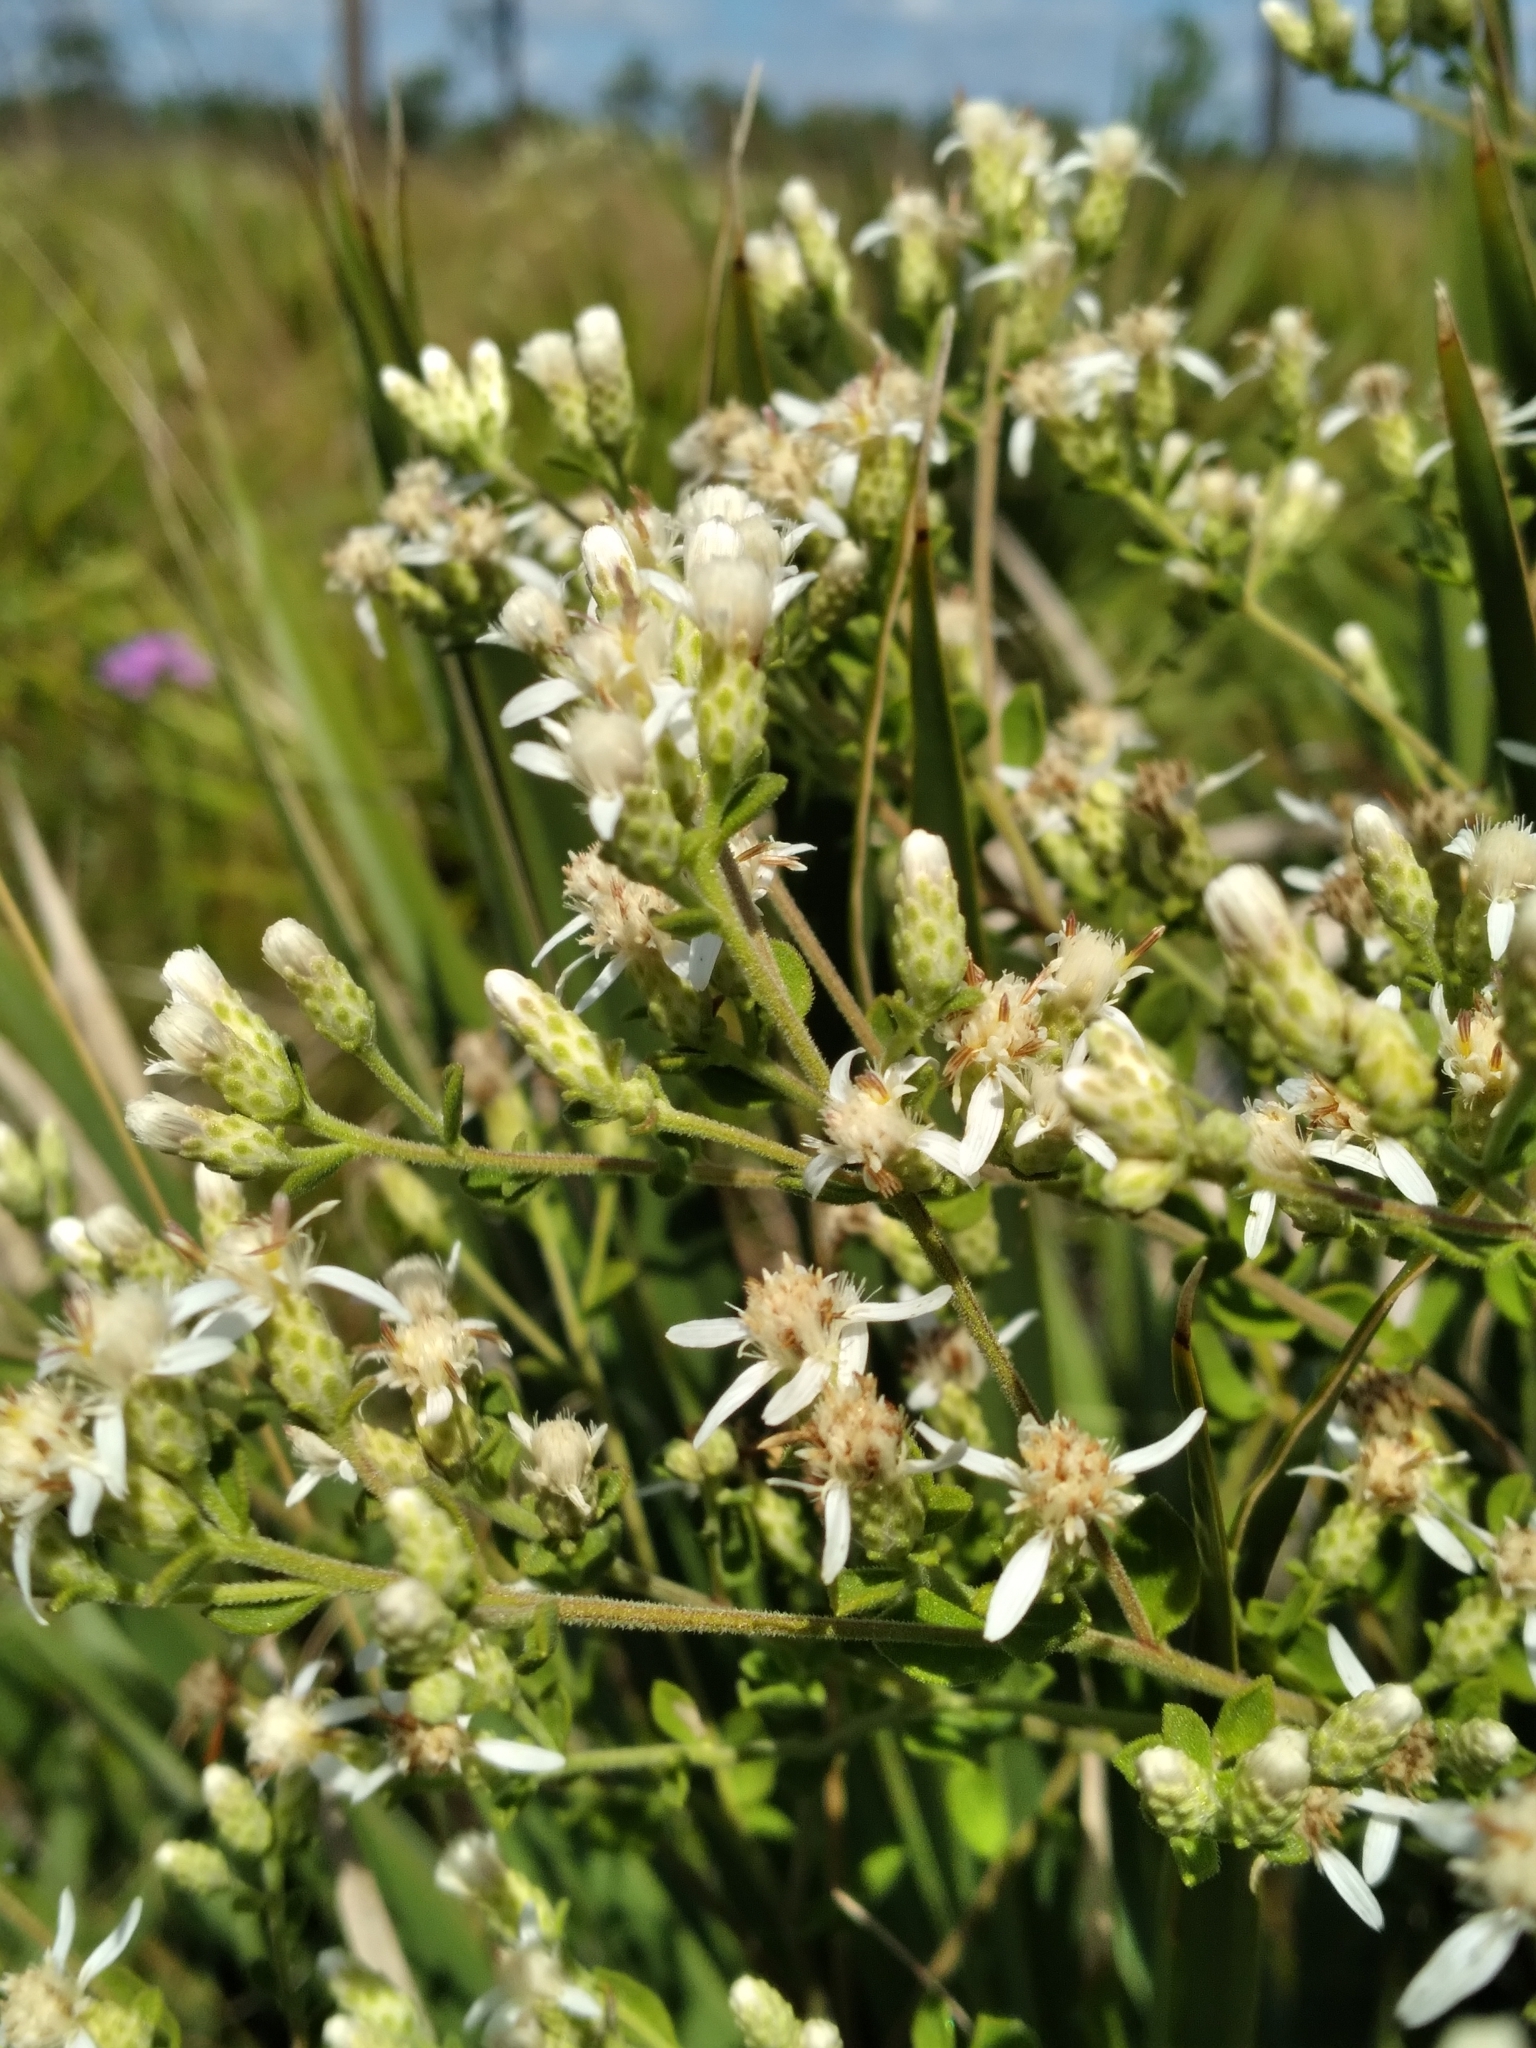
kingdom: Plantae
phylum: Tracheophyta
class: Magnoliopsida
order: Asterales
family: Asteraceae
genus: Sericocarpus
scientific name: Sericocarpus tortifolius
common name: Dixie aster
